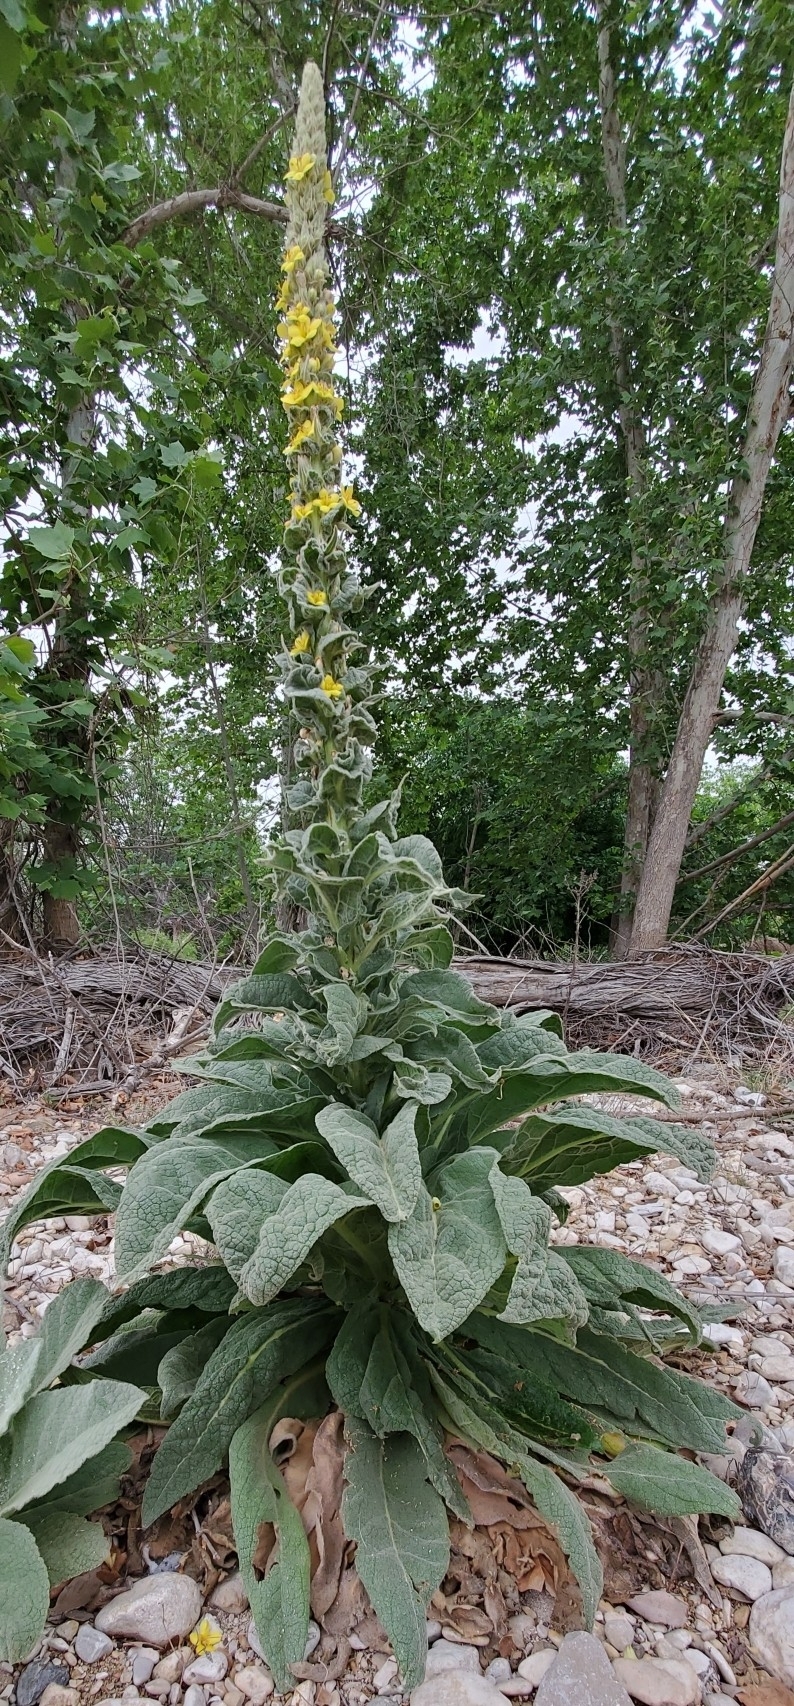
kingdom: Plantae
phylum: Tracheophyta
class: Magnoliopsida
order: Lamiales
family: Scrophulariaceae
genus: Verbascum
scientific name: Verbascum thapsus
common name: Common mullein
